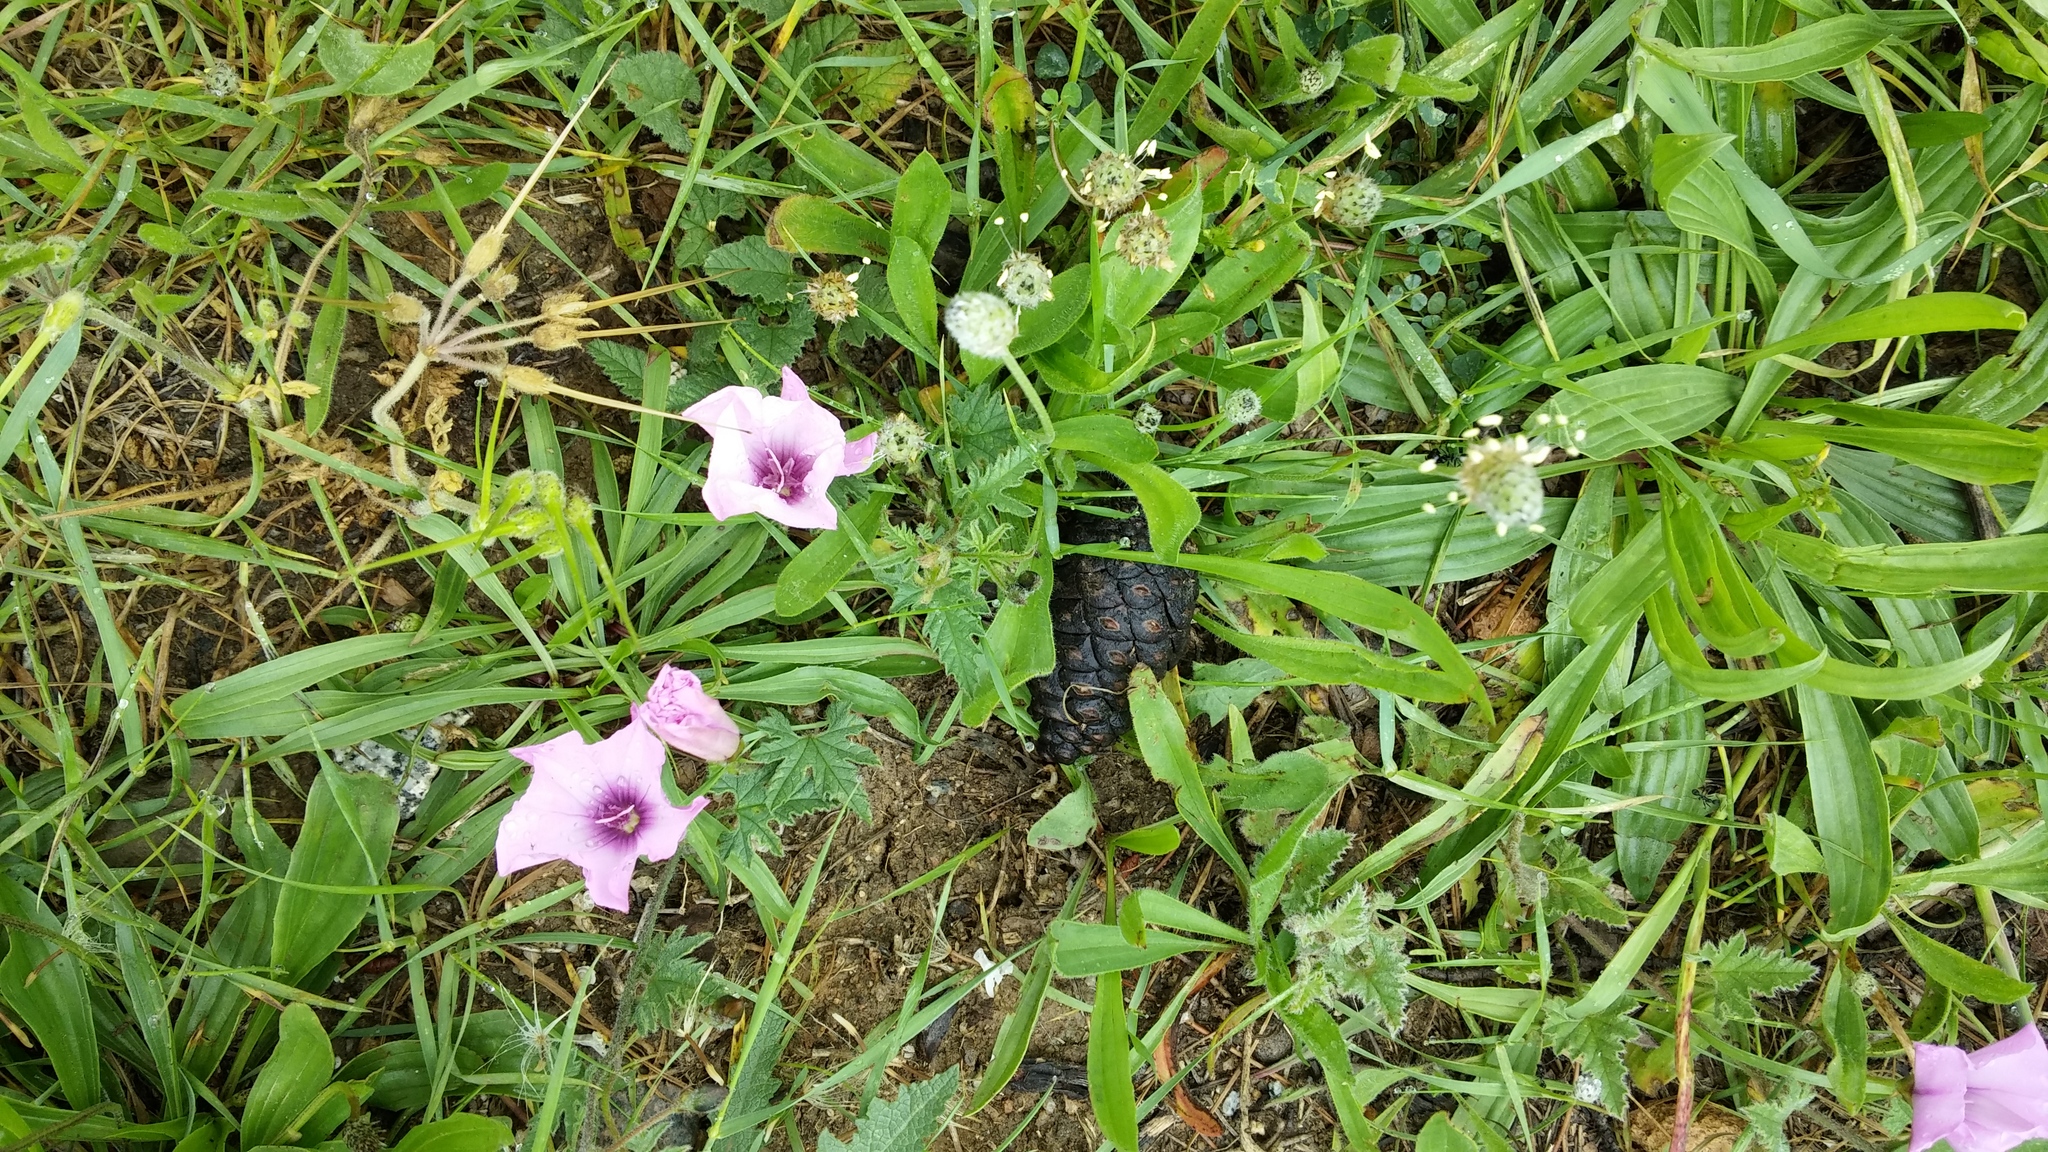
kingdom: Plantae
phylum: Tracheophyta
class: Magnoliopsida
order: Solanales
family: Convolvulaceae
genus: Convolvulus
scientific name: Convolvulus althaeoides
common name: Mallow bindweed
